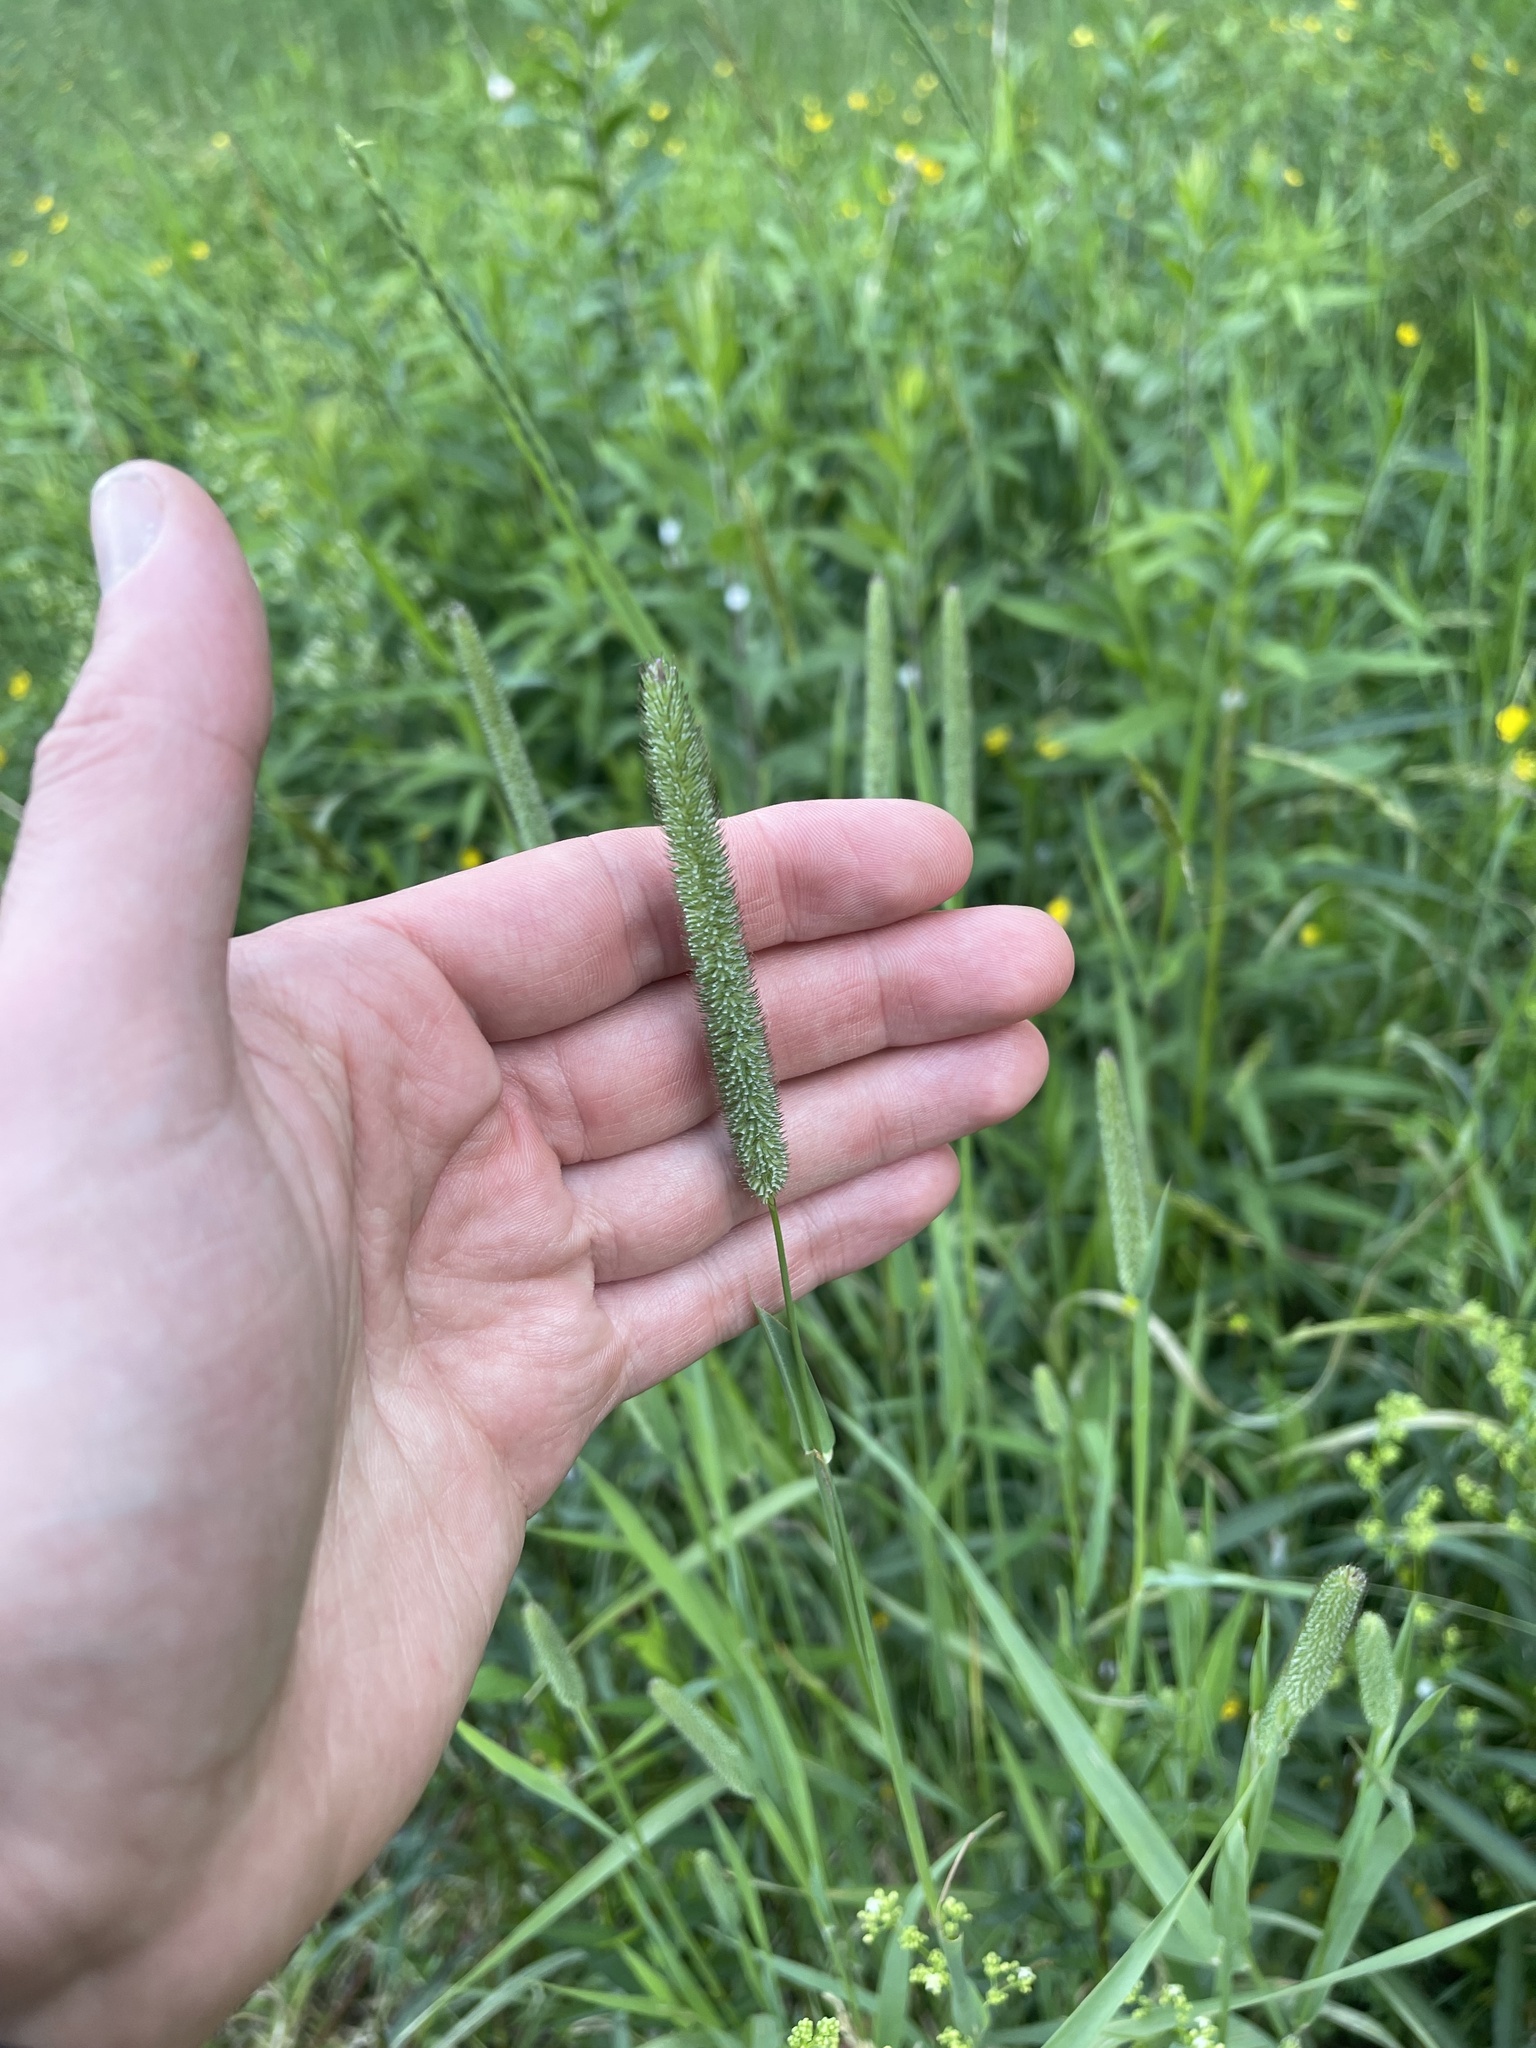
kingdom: Plantae
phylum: Tracheophyta
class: Liliopsida
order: Poales
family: Poaceae
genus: Phleum
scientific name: Phleum pratense
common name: Timothy grass
